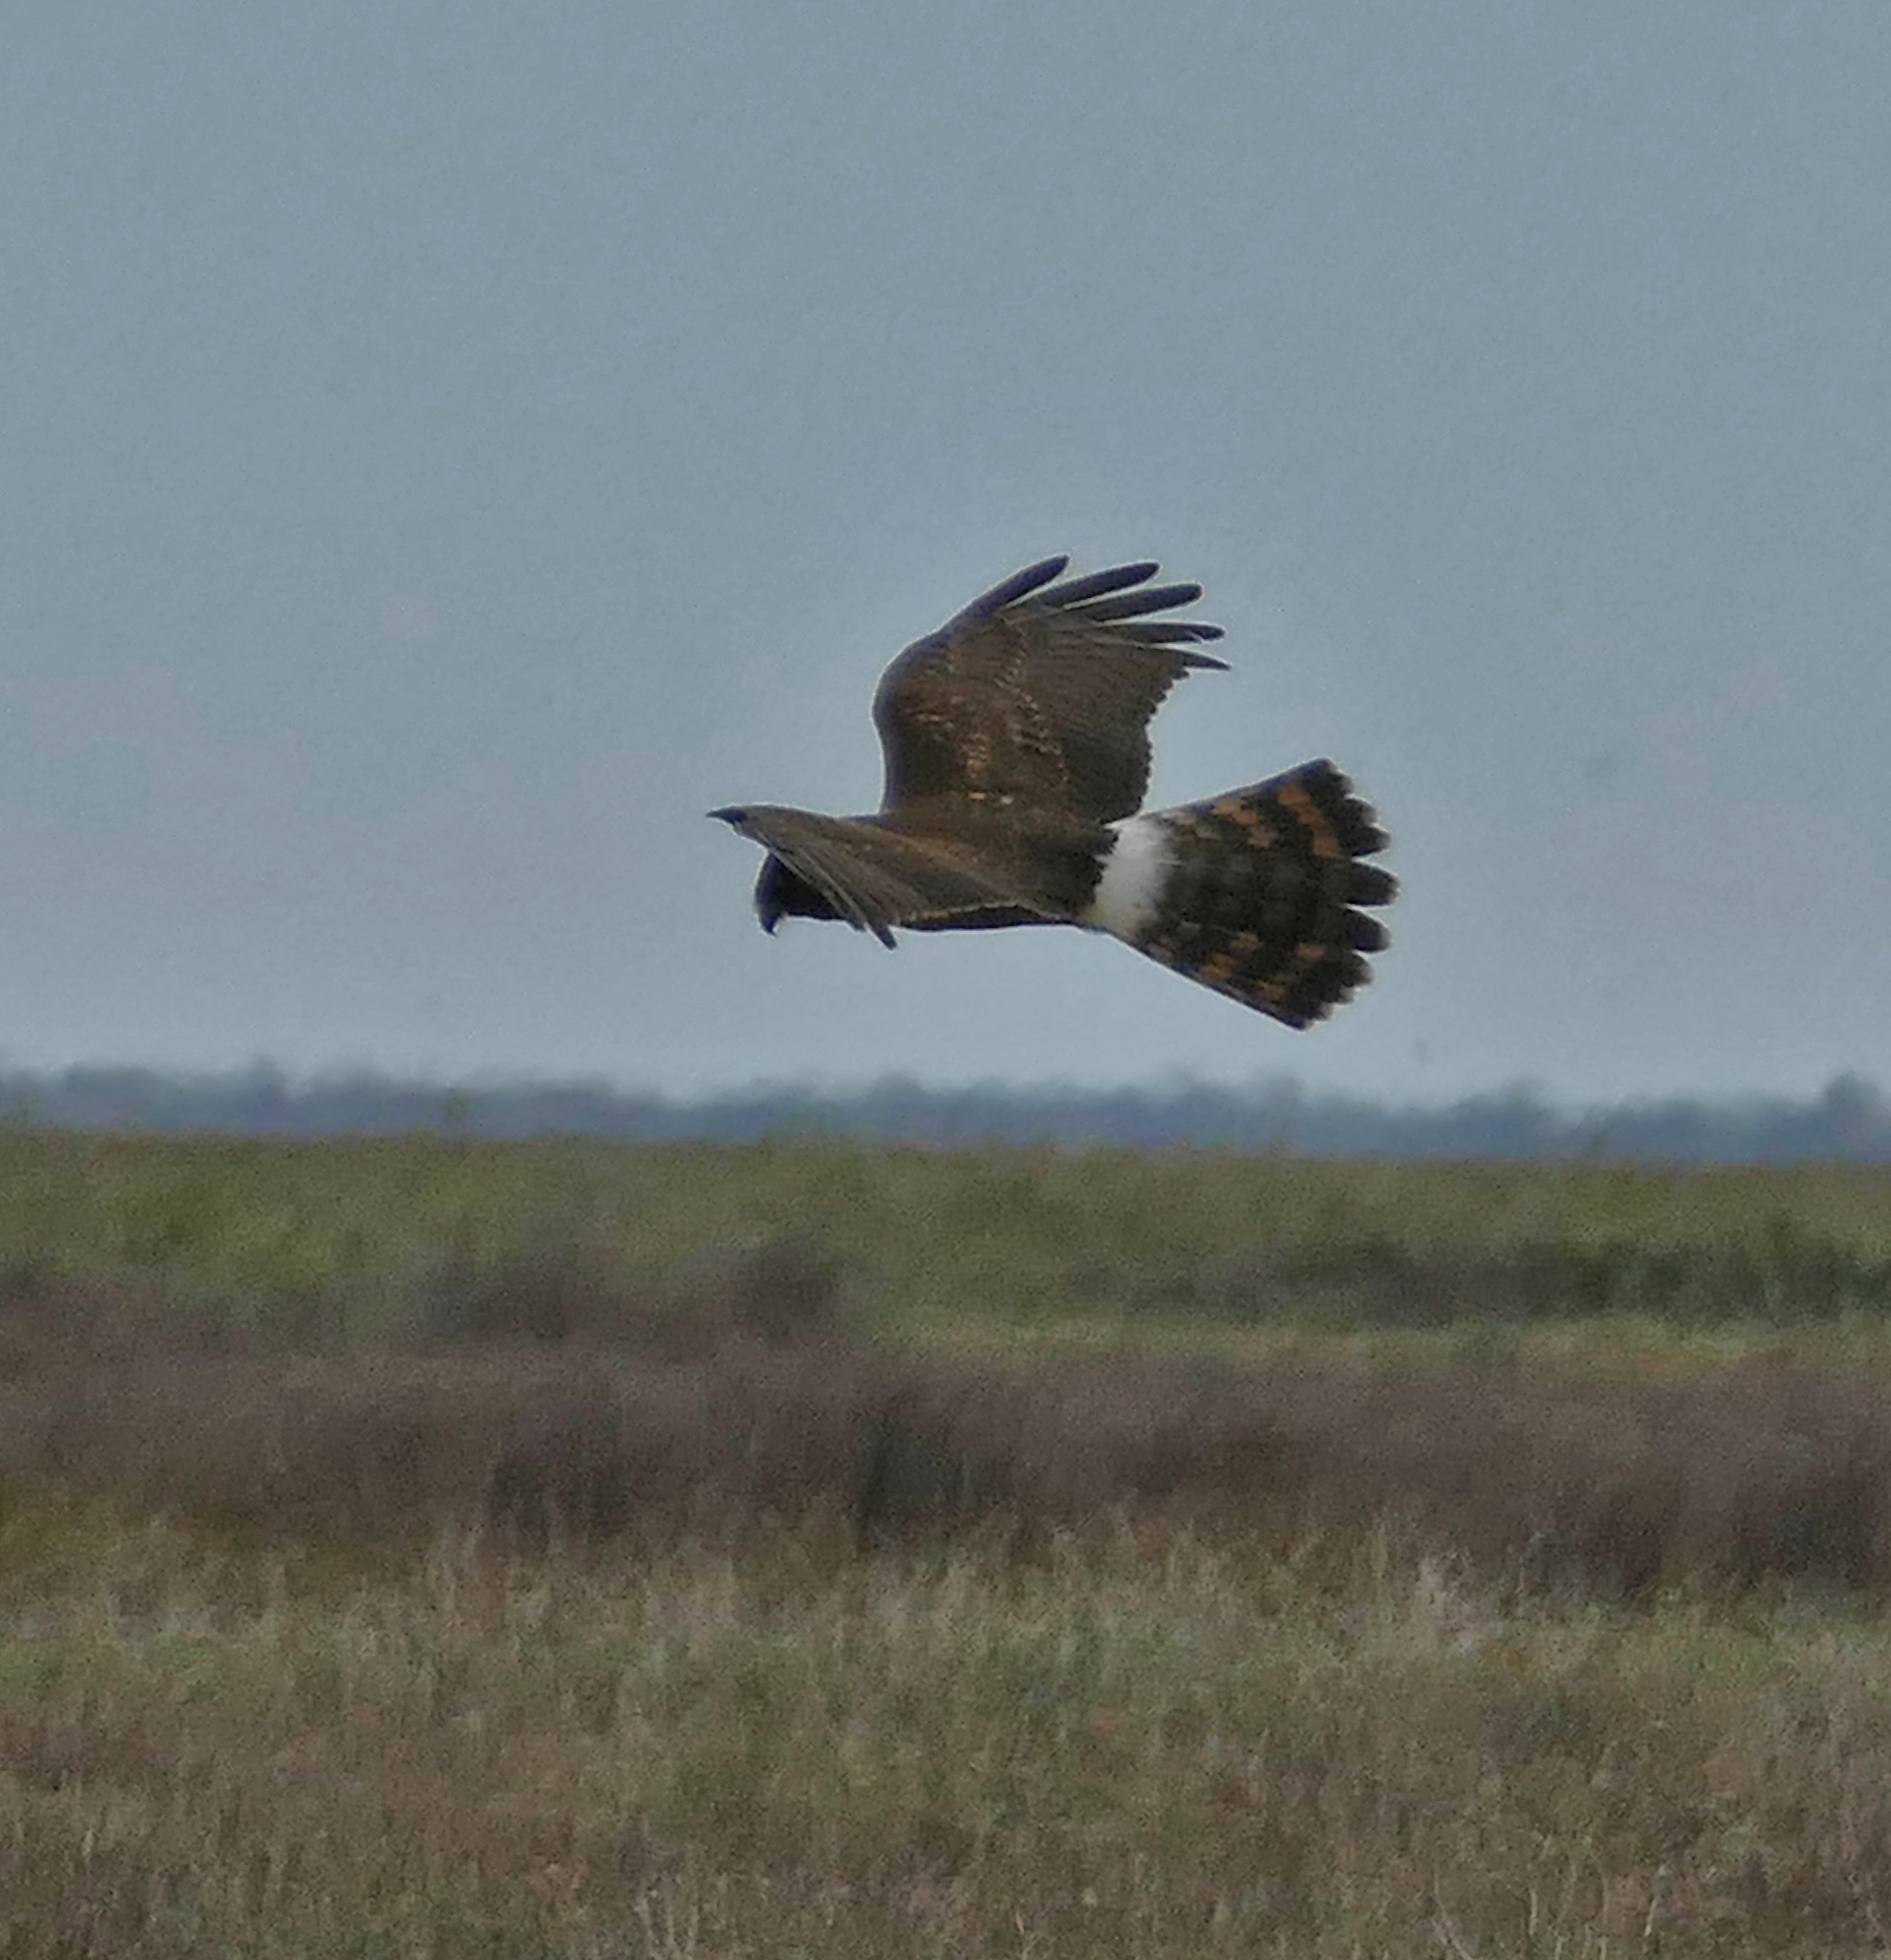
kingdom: Animalia
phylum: Chordata
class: Aves
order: Accipitriformes
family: Accipitridae
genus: Circus
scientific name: Circus cyaneus
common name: Hen harrier
